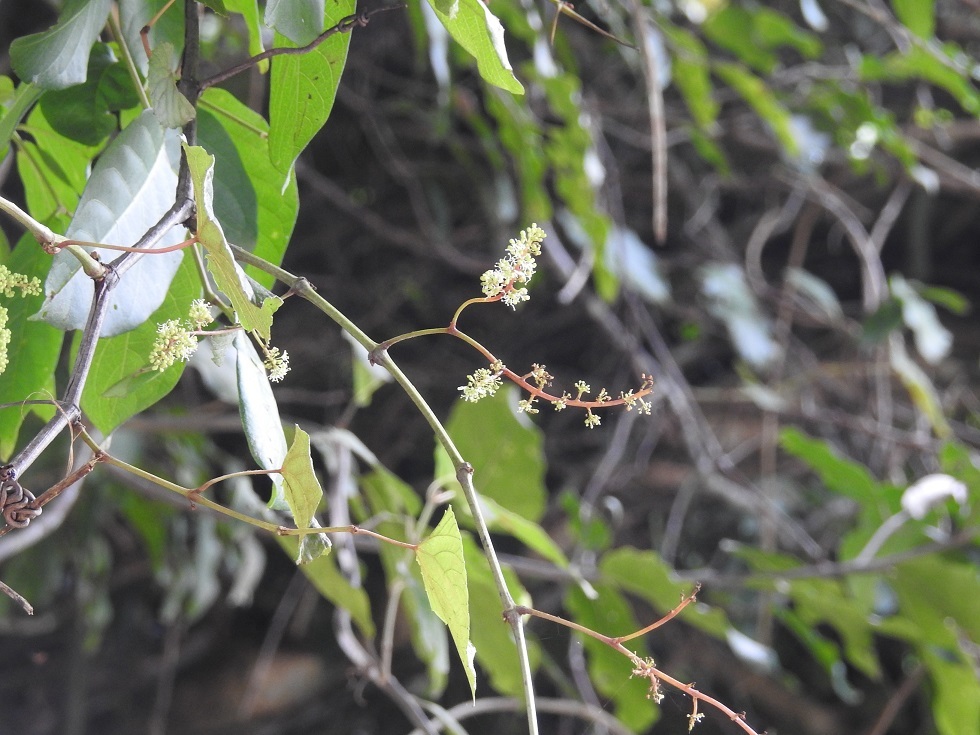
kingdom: Plantae
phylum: Tracheophyta
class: Magnoliopsida
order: Vitales
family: Vitaceae
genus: Cissus
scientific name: Cissus verticillata
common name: Princess vine
